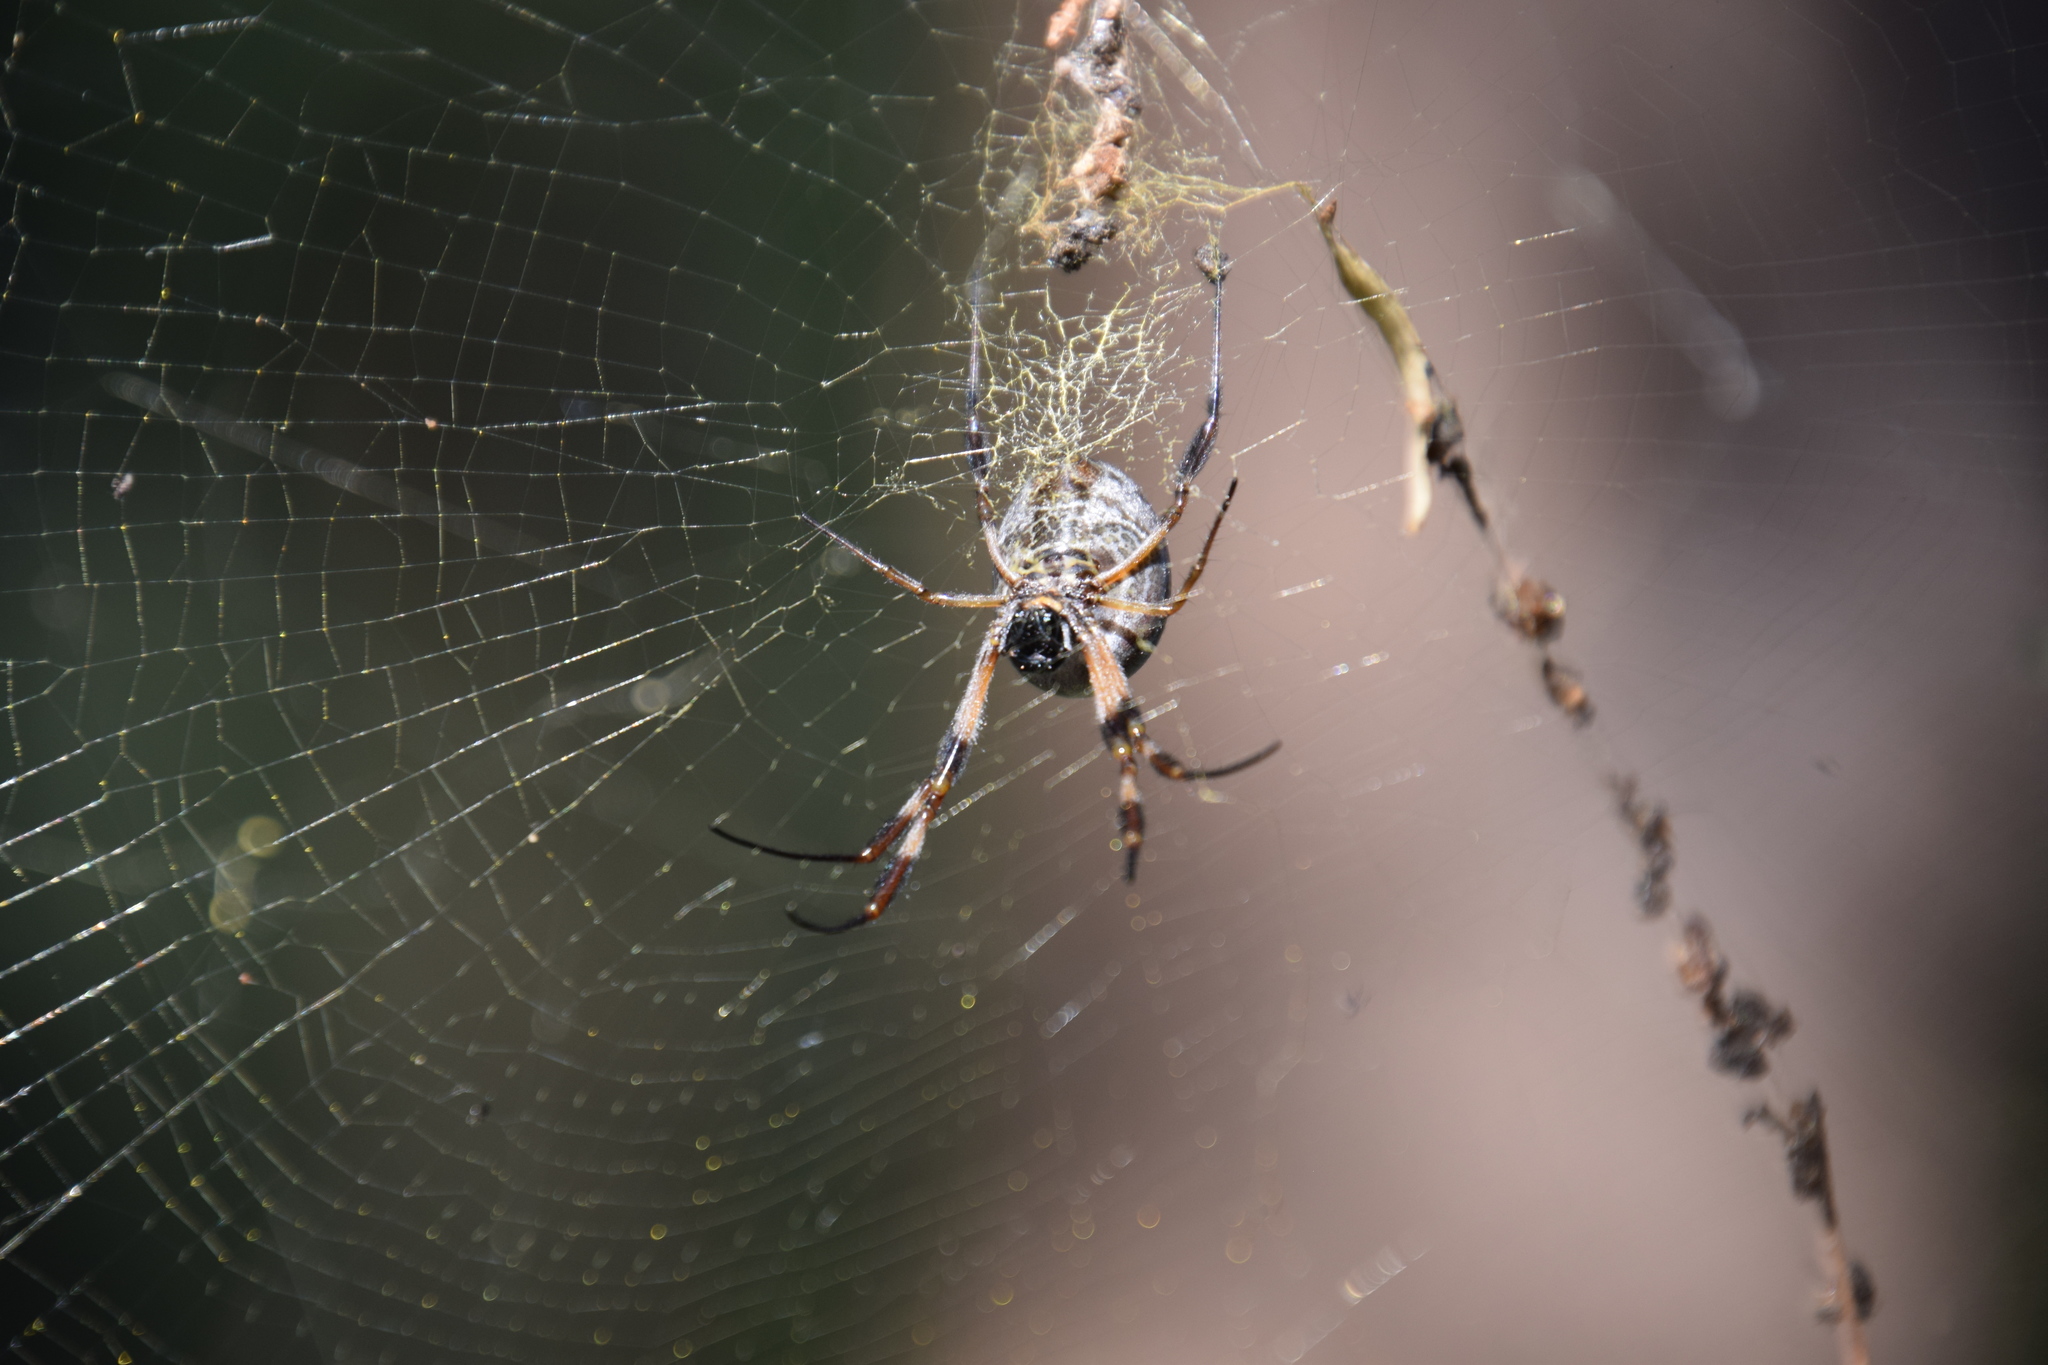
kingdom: Animalia
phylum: Arthropoda
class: Arachnida
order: Araneae
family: Araneidae
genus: Trichonephila
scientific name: Trichonephila edulis
